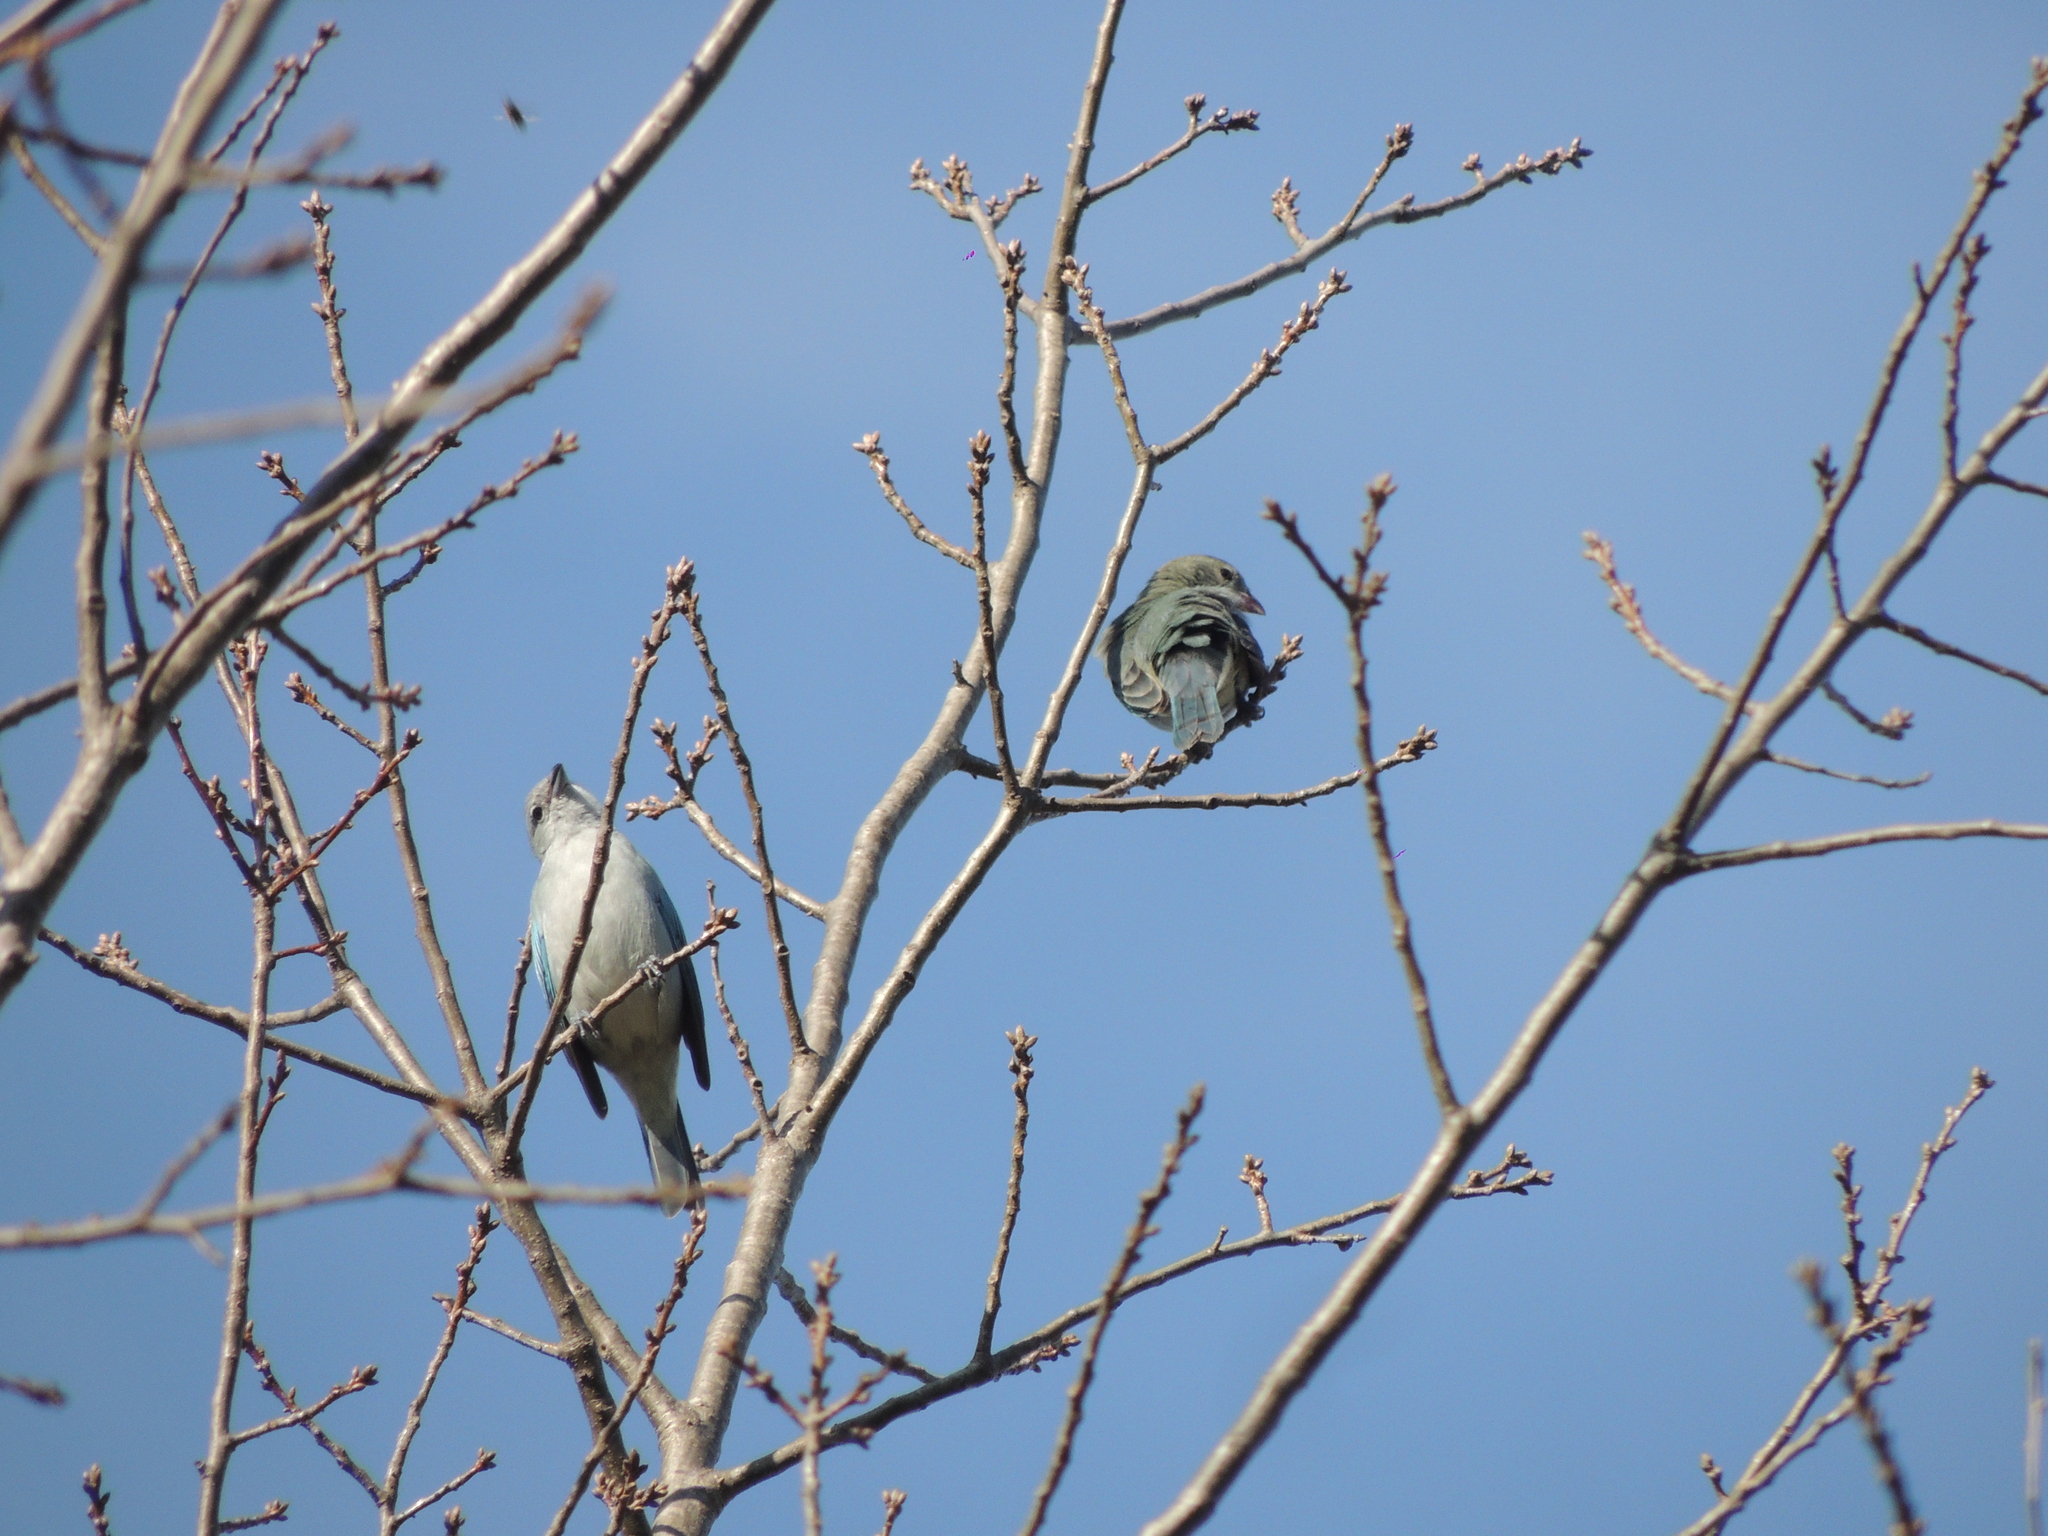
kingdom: Animalia
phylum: Chordata
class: Aves
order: Passeriformes
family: Thraupidae
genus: Thraupis
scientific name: Thraupis sayaca
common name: Sayaca tanager
